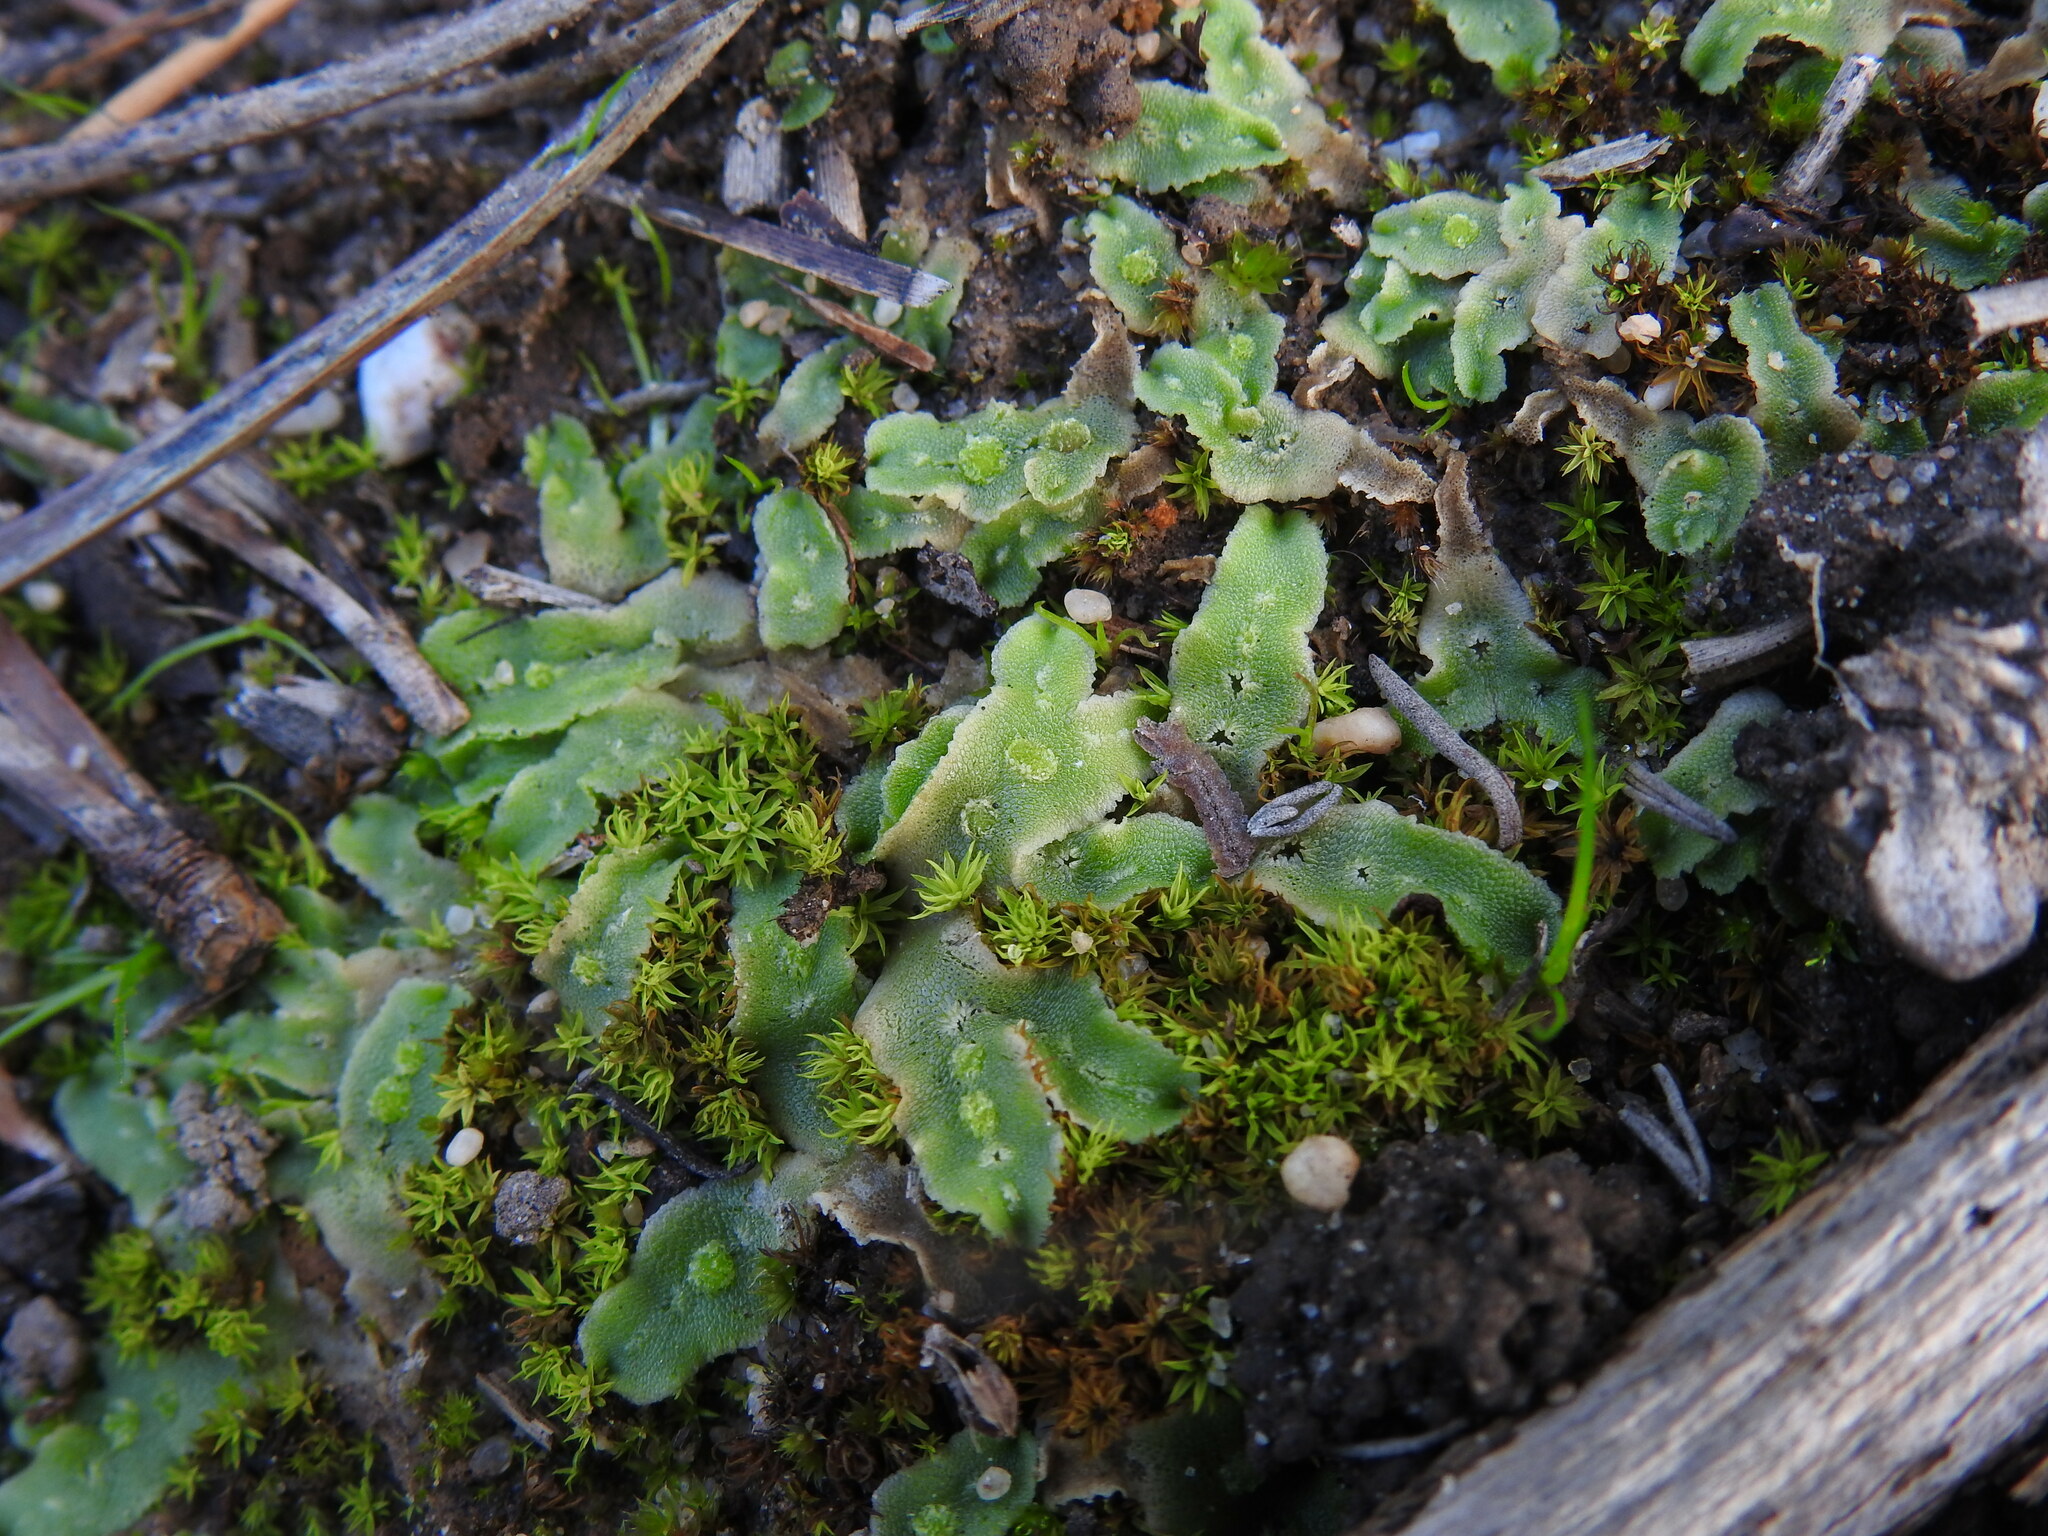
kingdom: Plantae
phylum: Marchantiophyta
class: Marchantiopsida
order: Marchantiales
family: Corsiniaceae
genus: Corsinia
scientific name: Corsinia coriandrina
